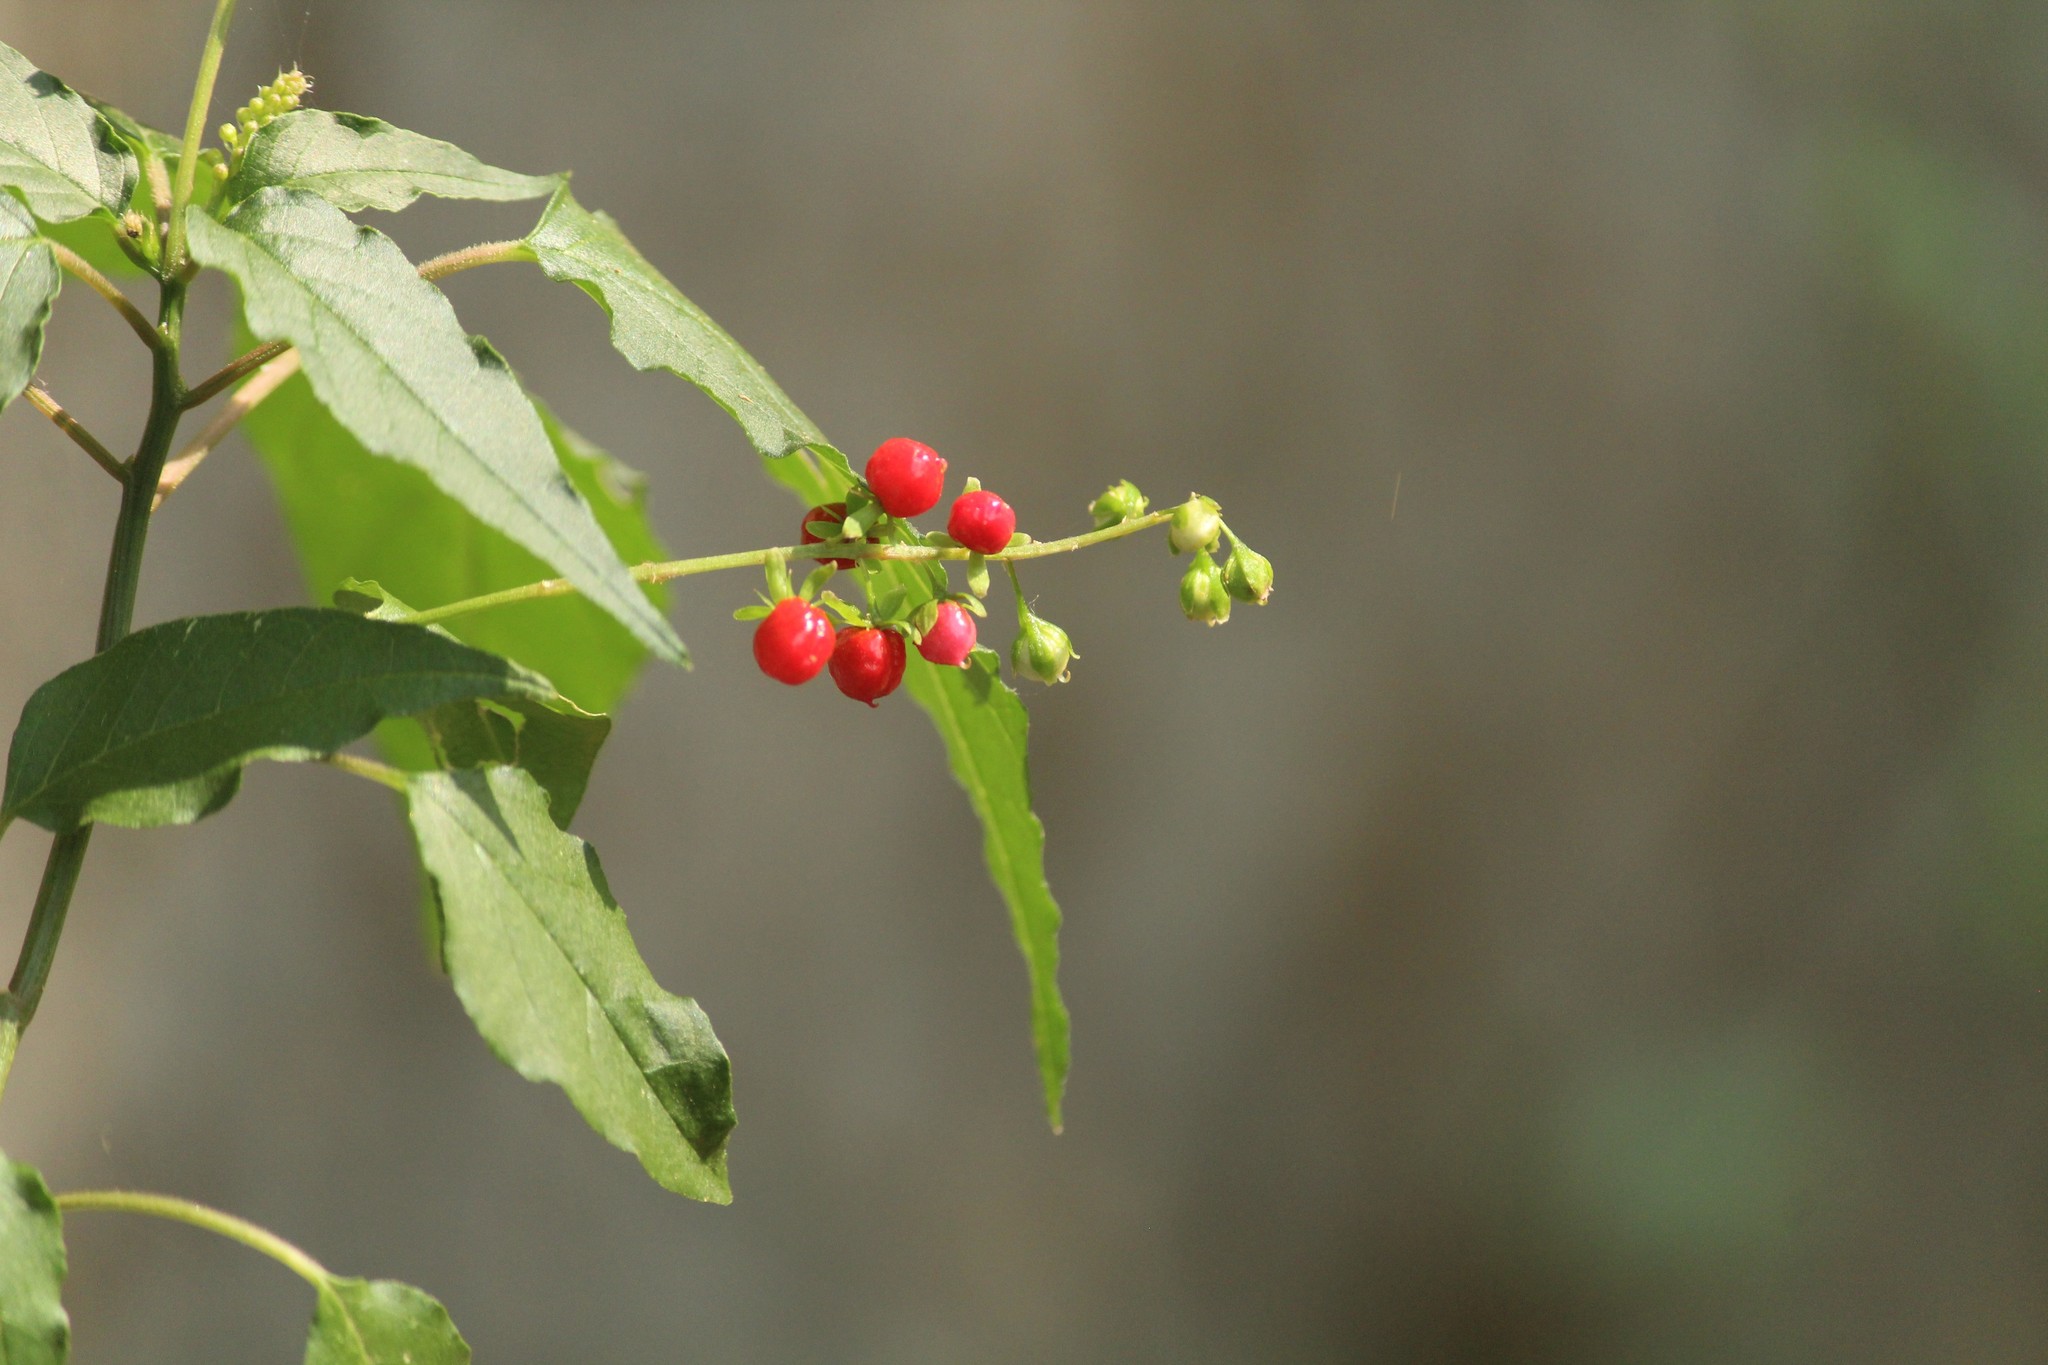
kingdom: Plantae
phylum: Tracheophyta
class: Magnoliopsida
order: Caryophyllales
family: Phytolaccaceae
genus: Rivina
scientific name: Rivina humilis
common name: Rougeplant
